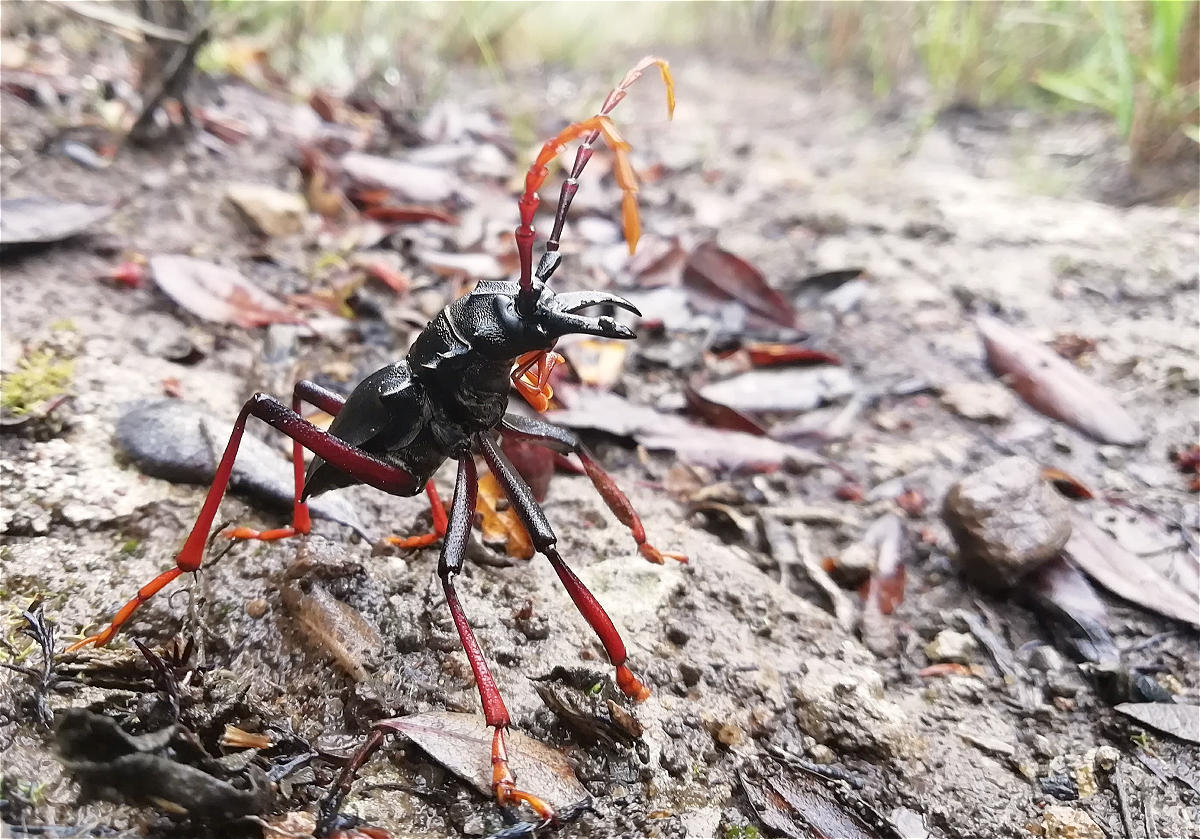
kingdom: Animalia
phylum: Arthropoda
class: Insecta
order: Coleoptera
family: Cerambycidae
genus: Prionacalus
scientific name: Prionacalus cacicus
